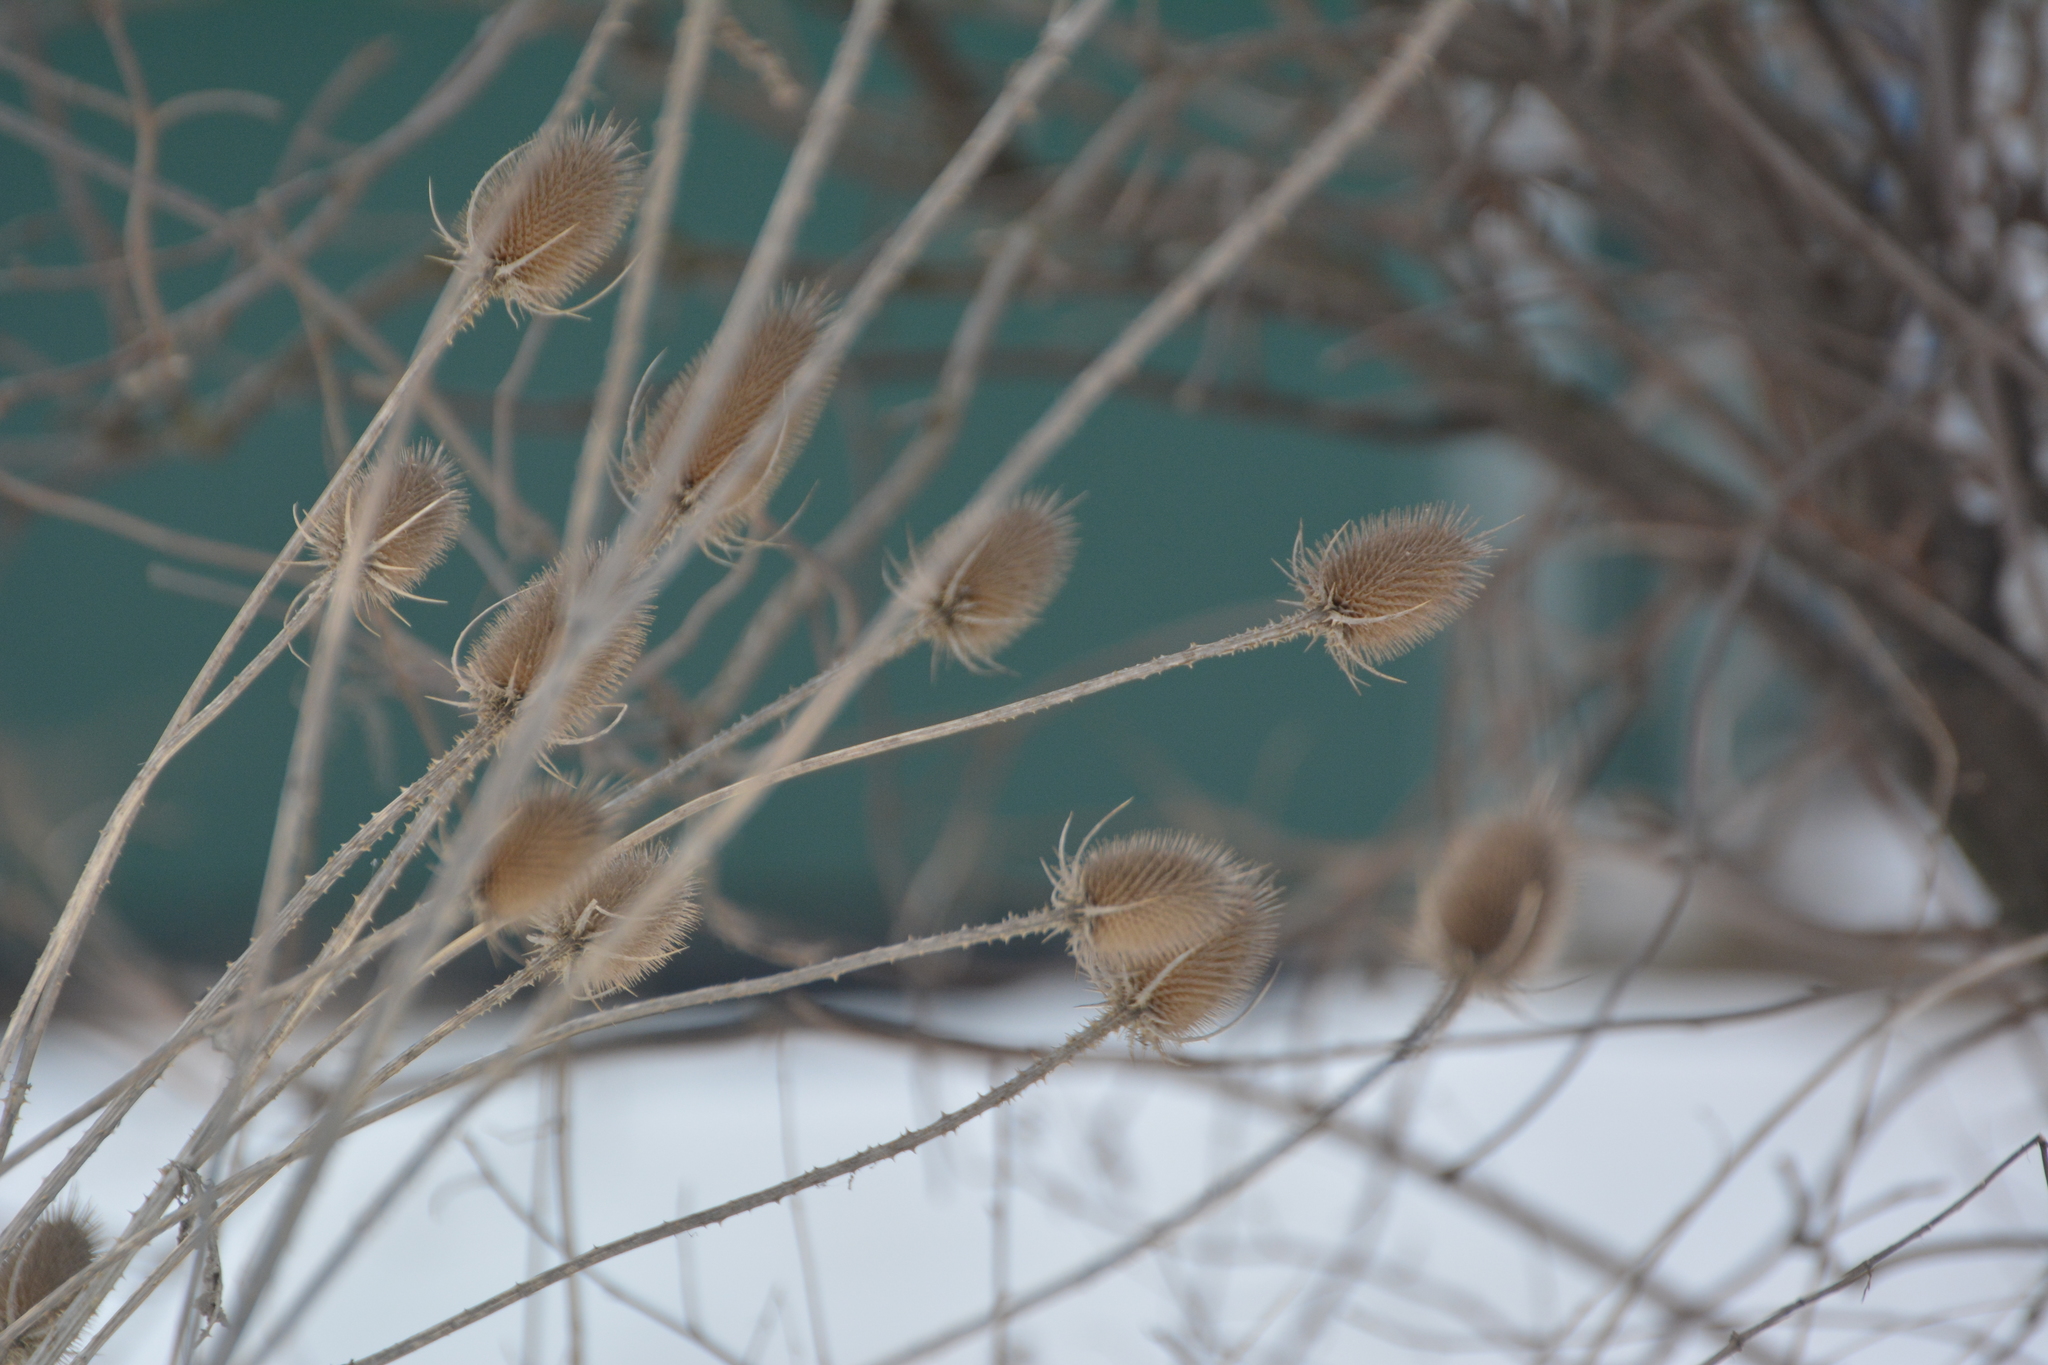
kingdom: Plantae
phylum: Tracheophyta
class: Magnoliopsida
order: Dipsacales
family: Caprifoliaceae
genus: Dipsacus
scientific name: Dipsacus fullonum
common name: Teasel
